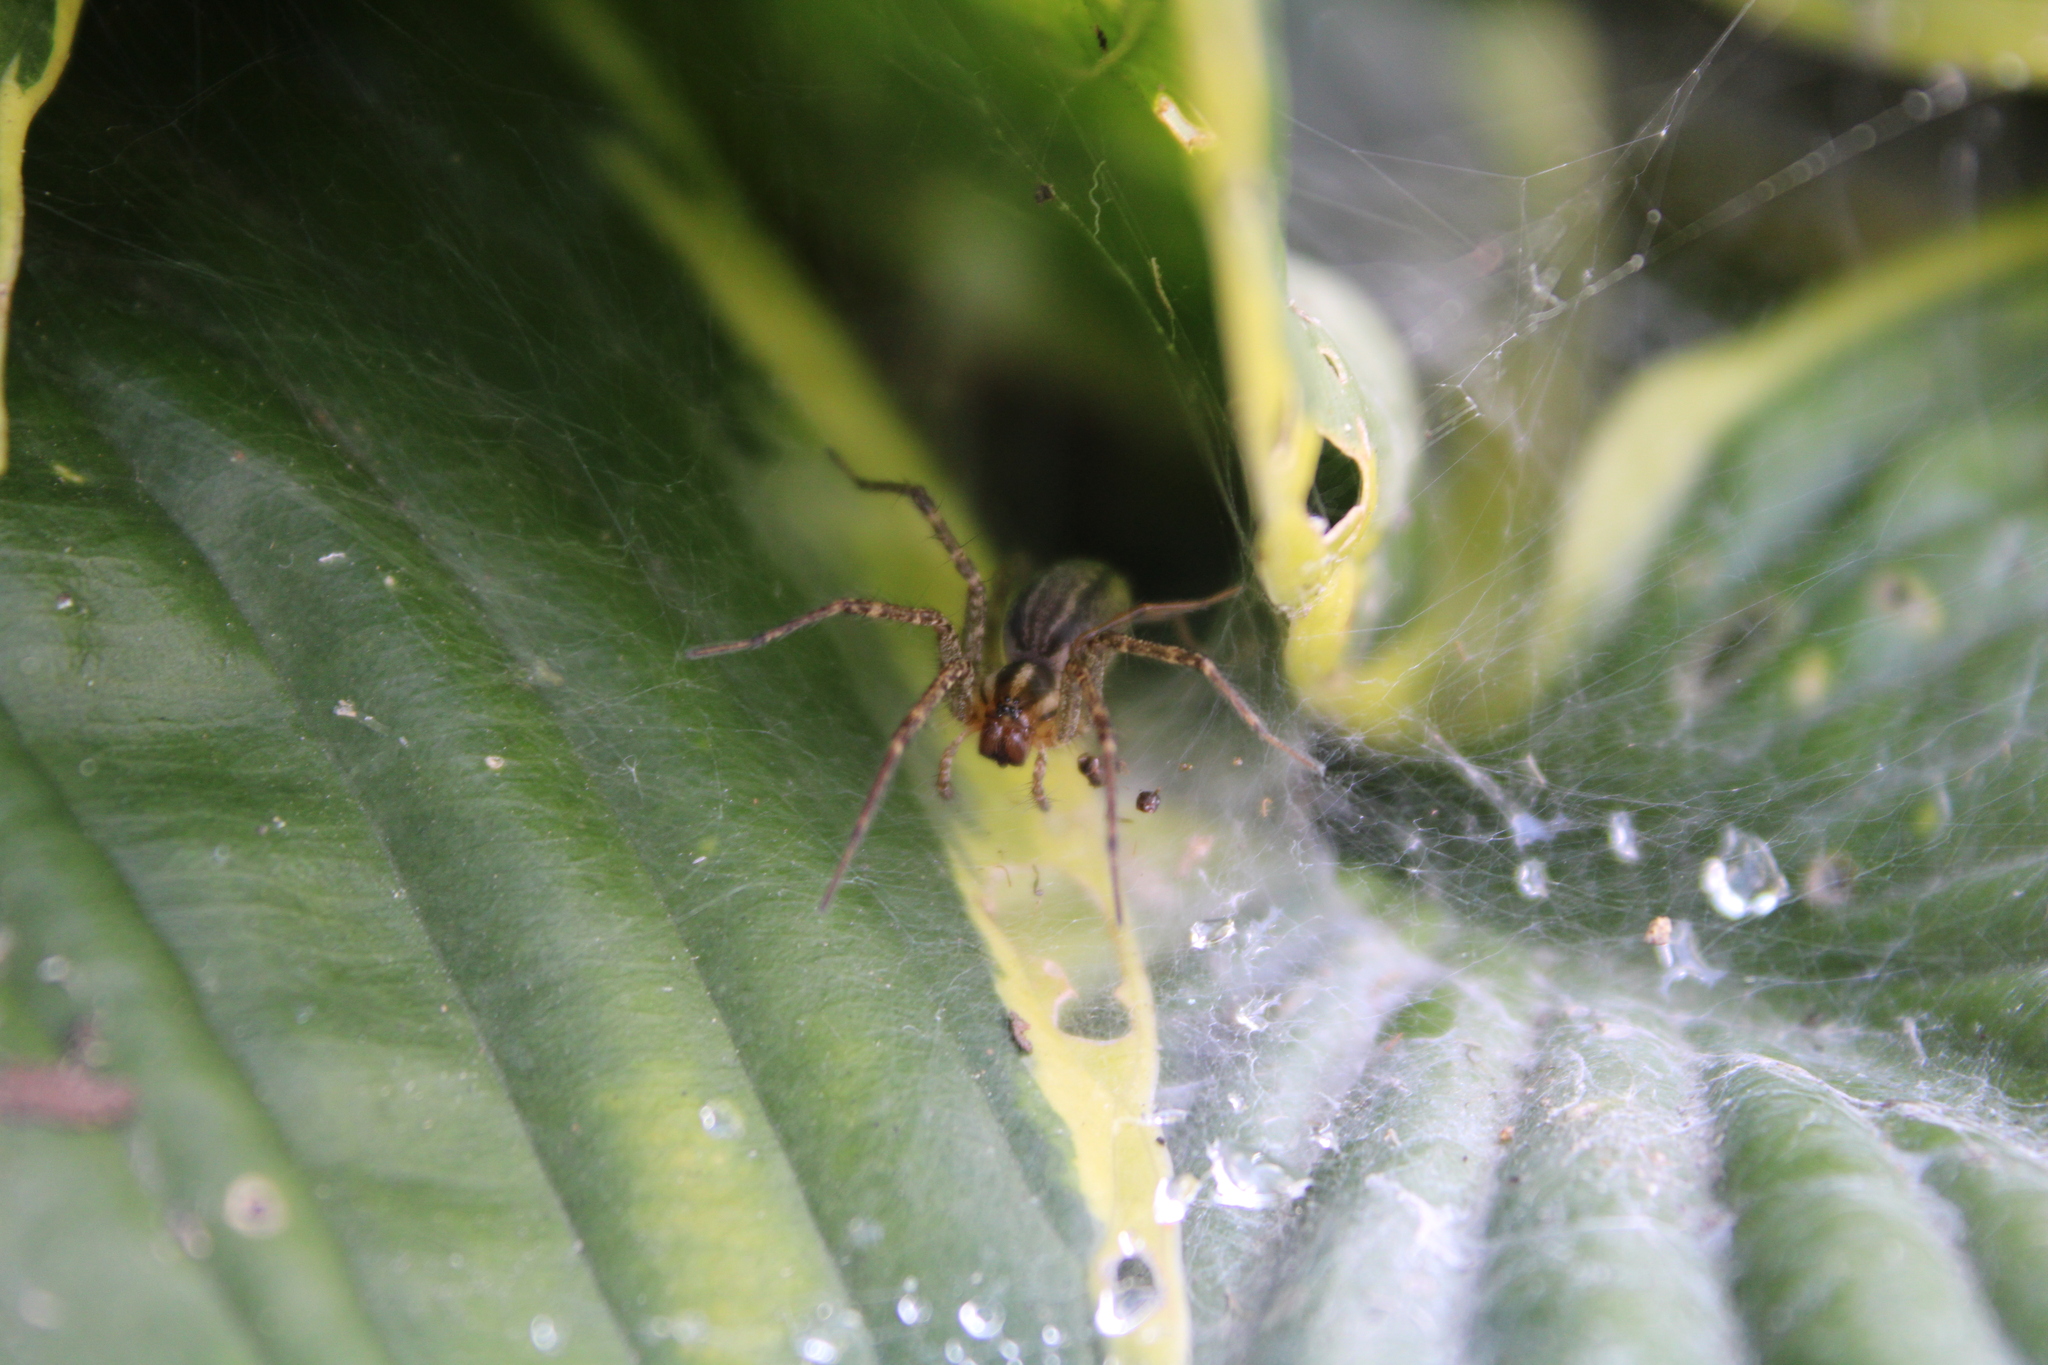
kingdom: Animalia
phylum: Arthropoda
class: Arachnida
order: Araneae
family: Agelenidae
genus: Agelenopsis
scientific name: Agelenopsis
